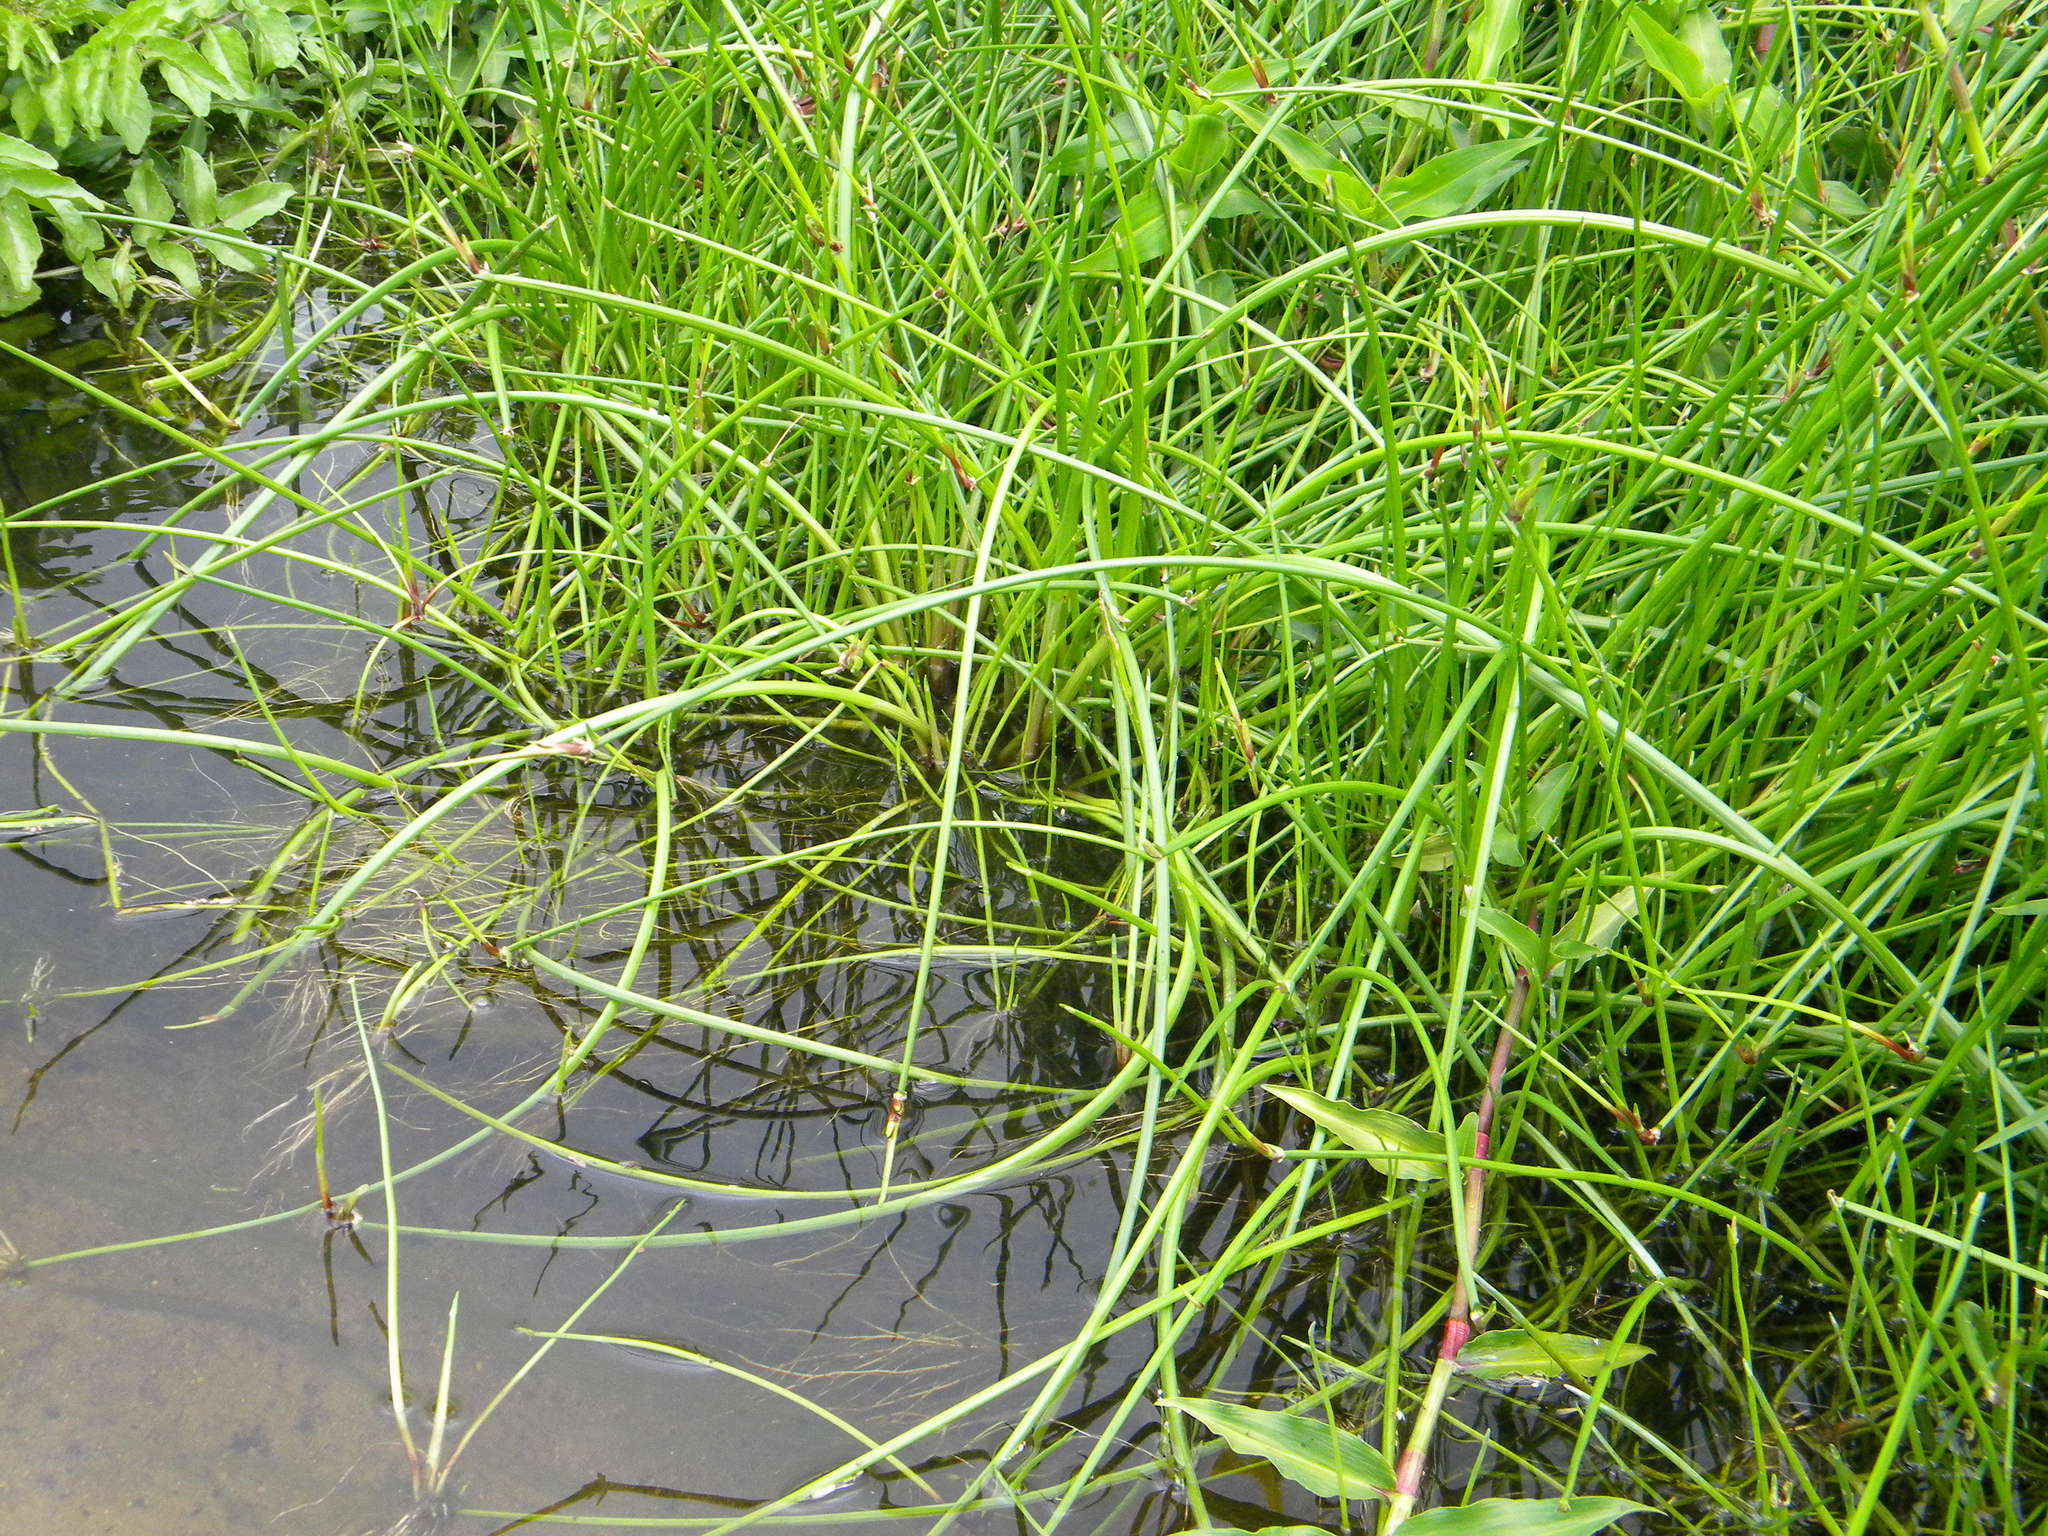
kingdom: Plantae
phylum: Tracheophyta
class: Liliopsida
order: Poales
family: Cyperaceae
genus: Isolepis
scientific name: Isolepis prolifera
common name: Proliferating bulrush
